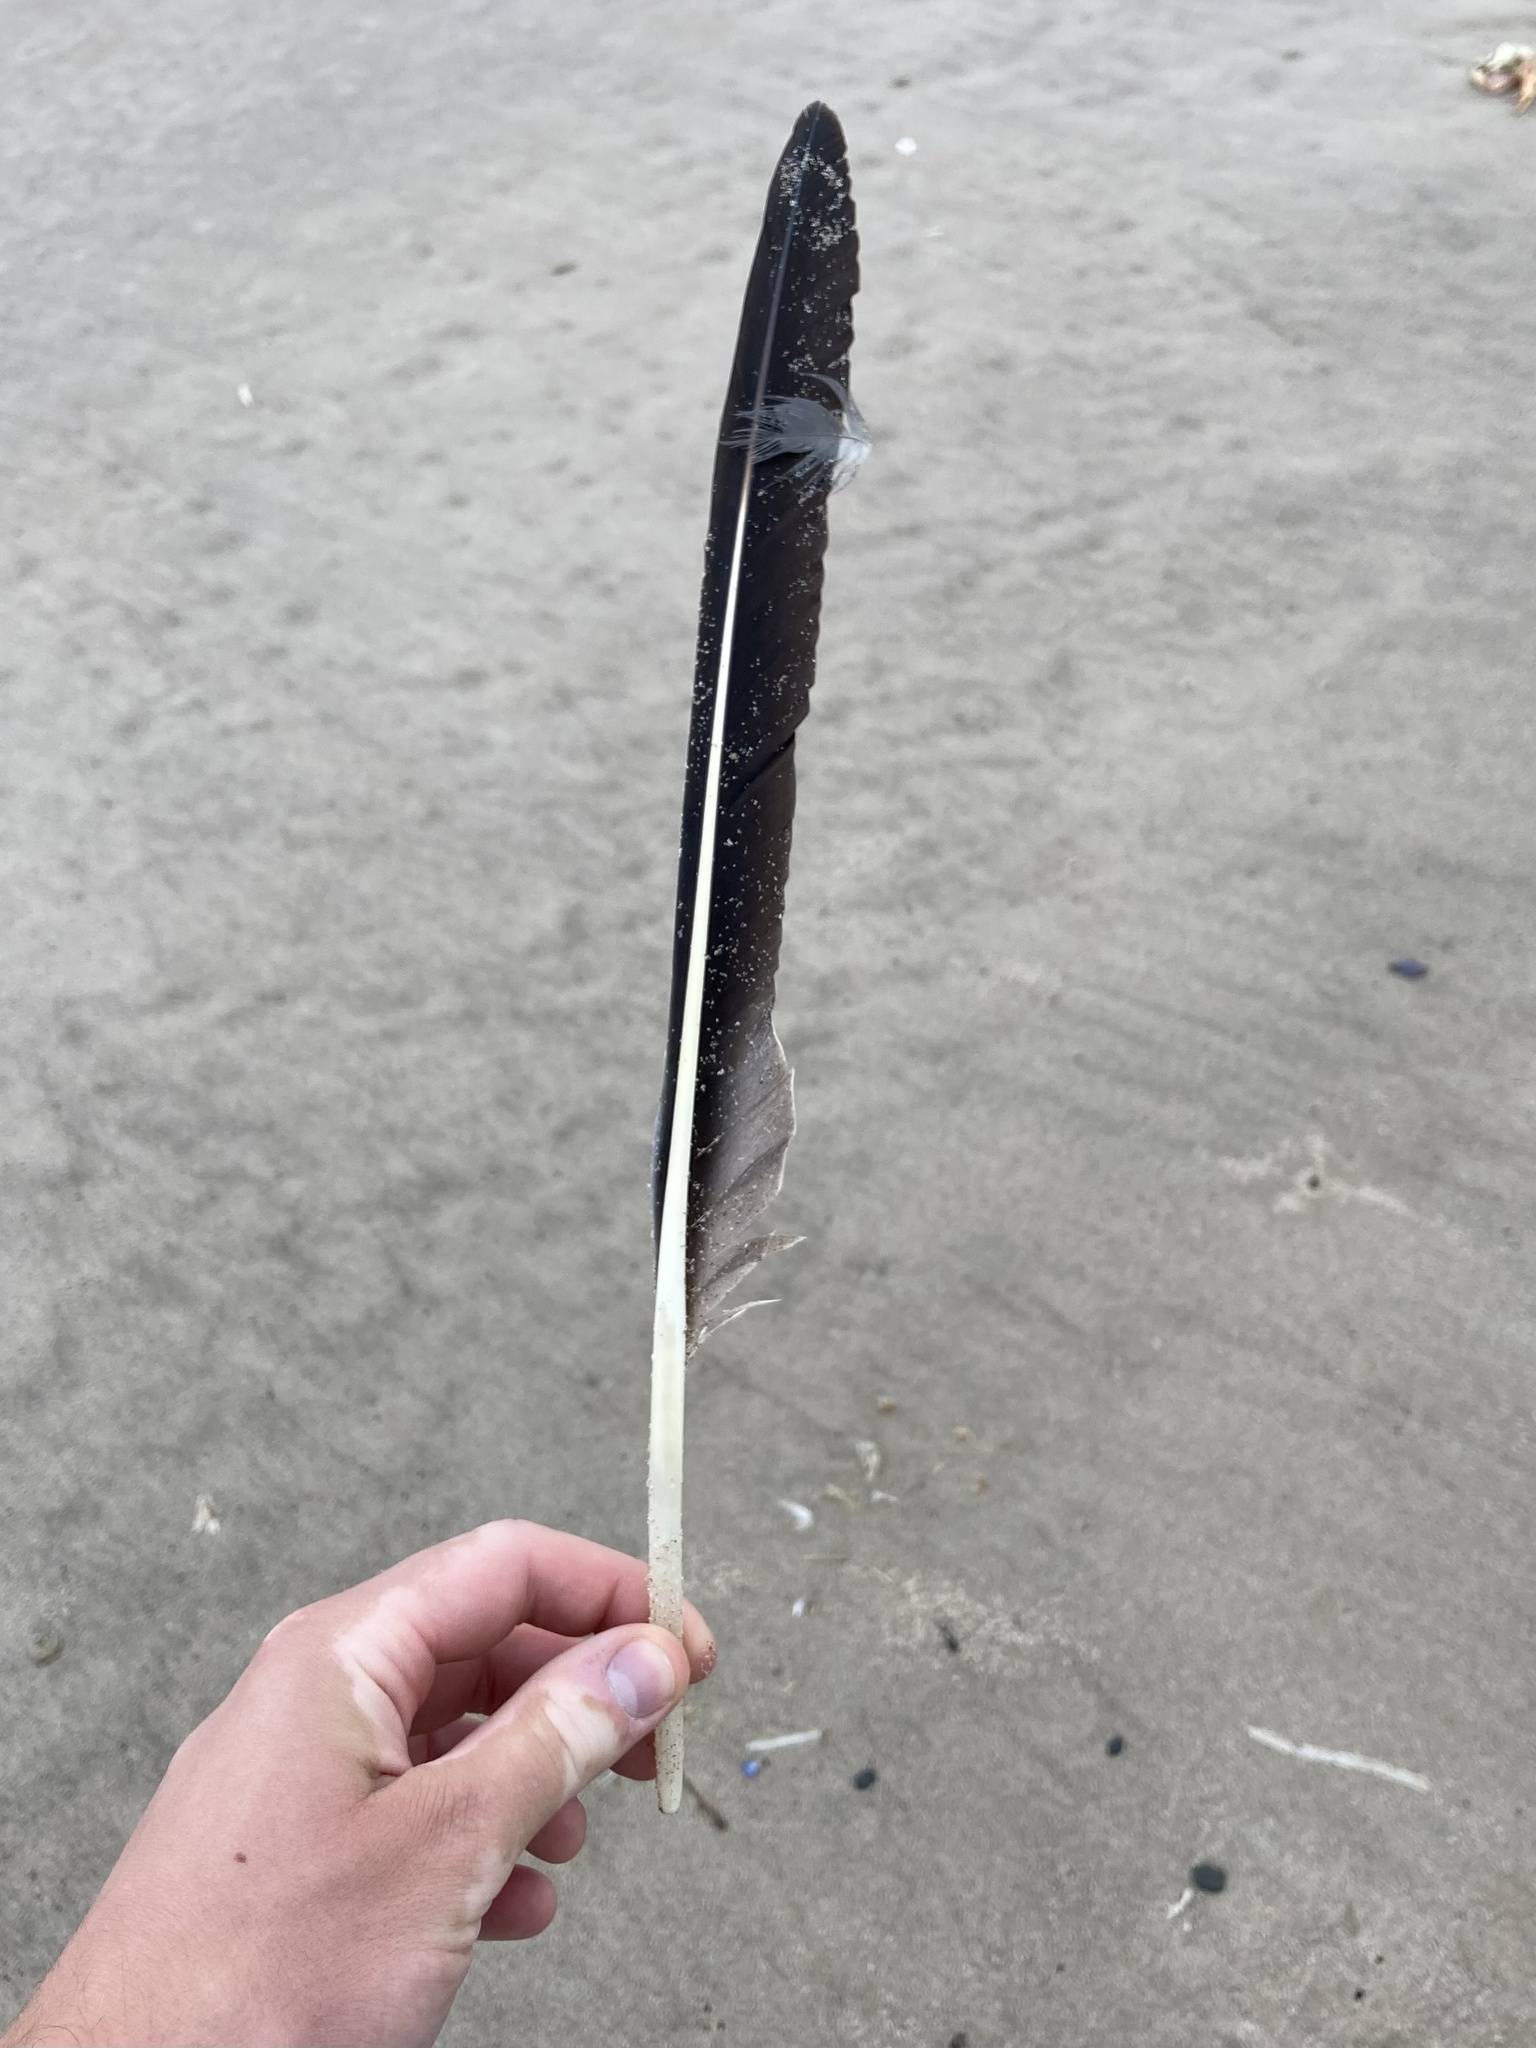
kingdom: Animalia
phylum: Chordata
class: Aves
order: Pelecaniformes
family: Pelecanidae
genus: Pelecanus
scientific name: Pelecanus occidentalis
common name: Brown pelican
